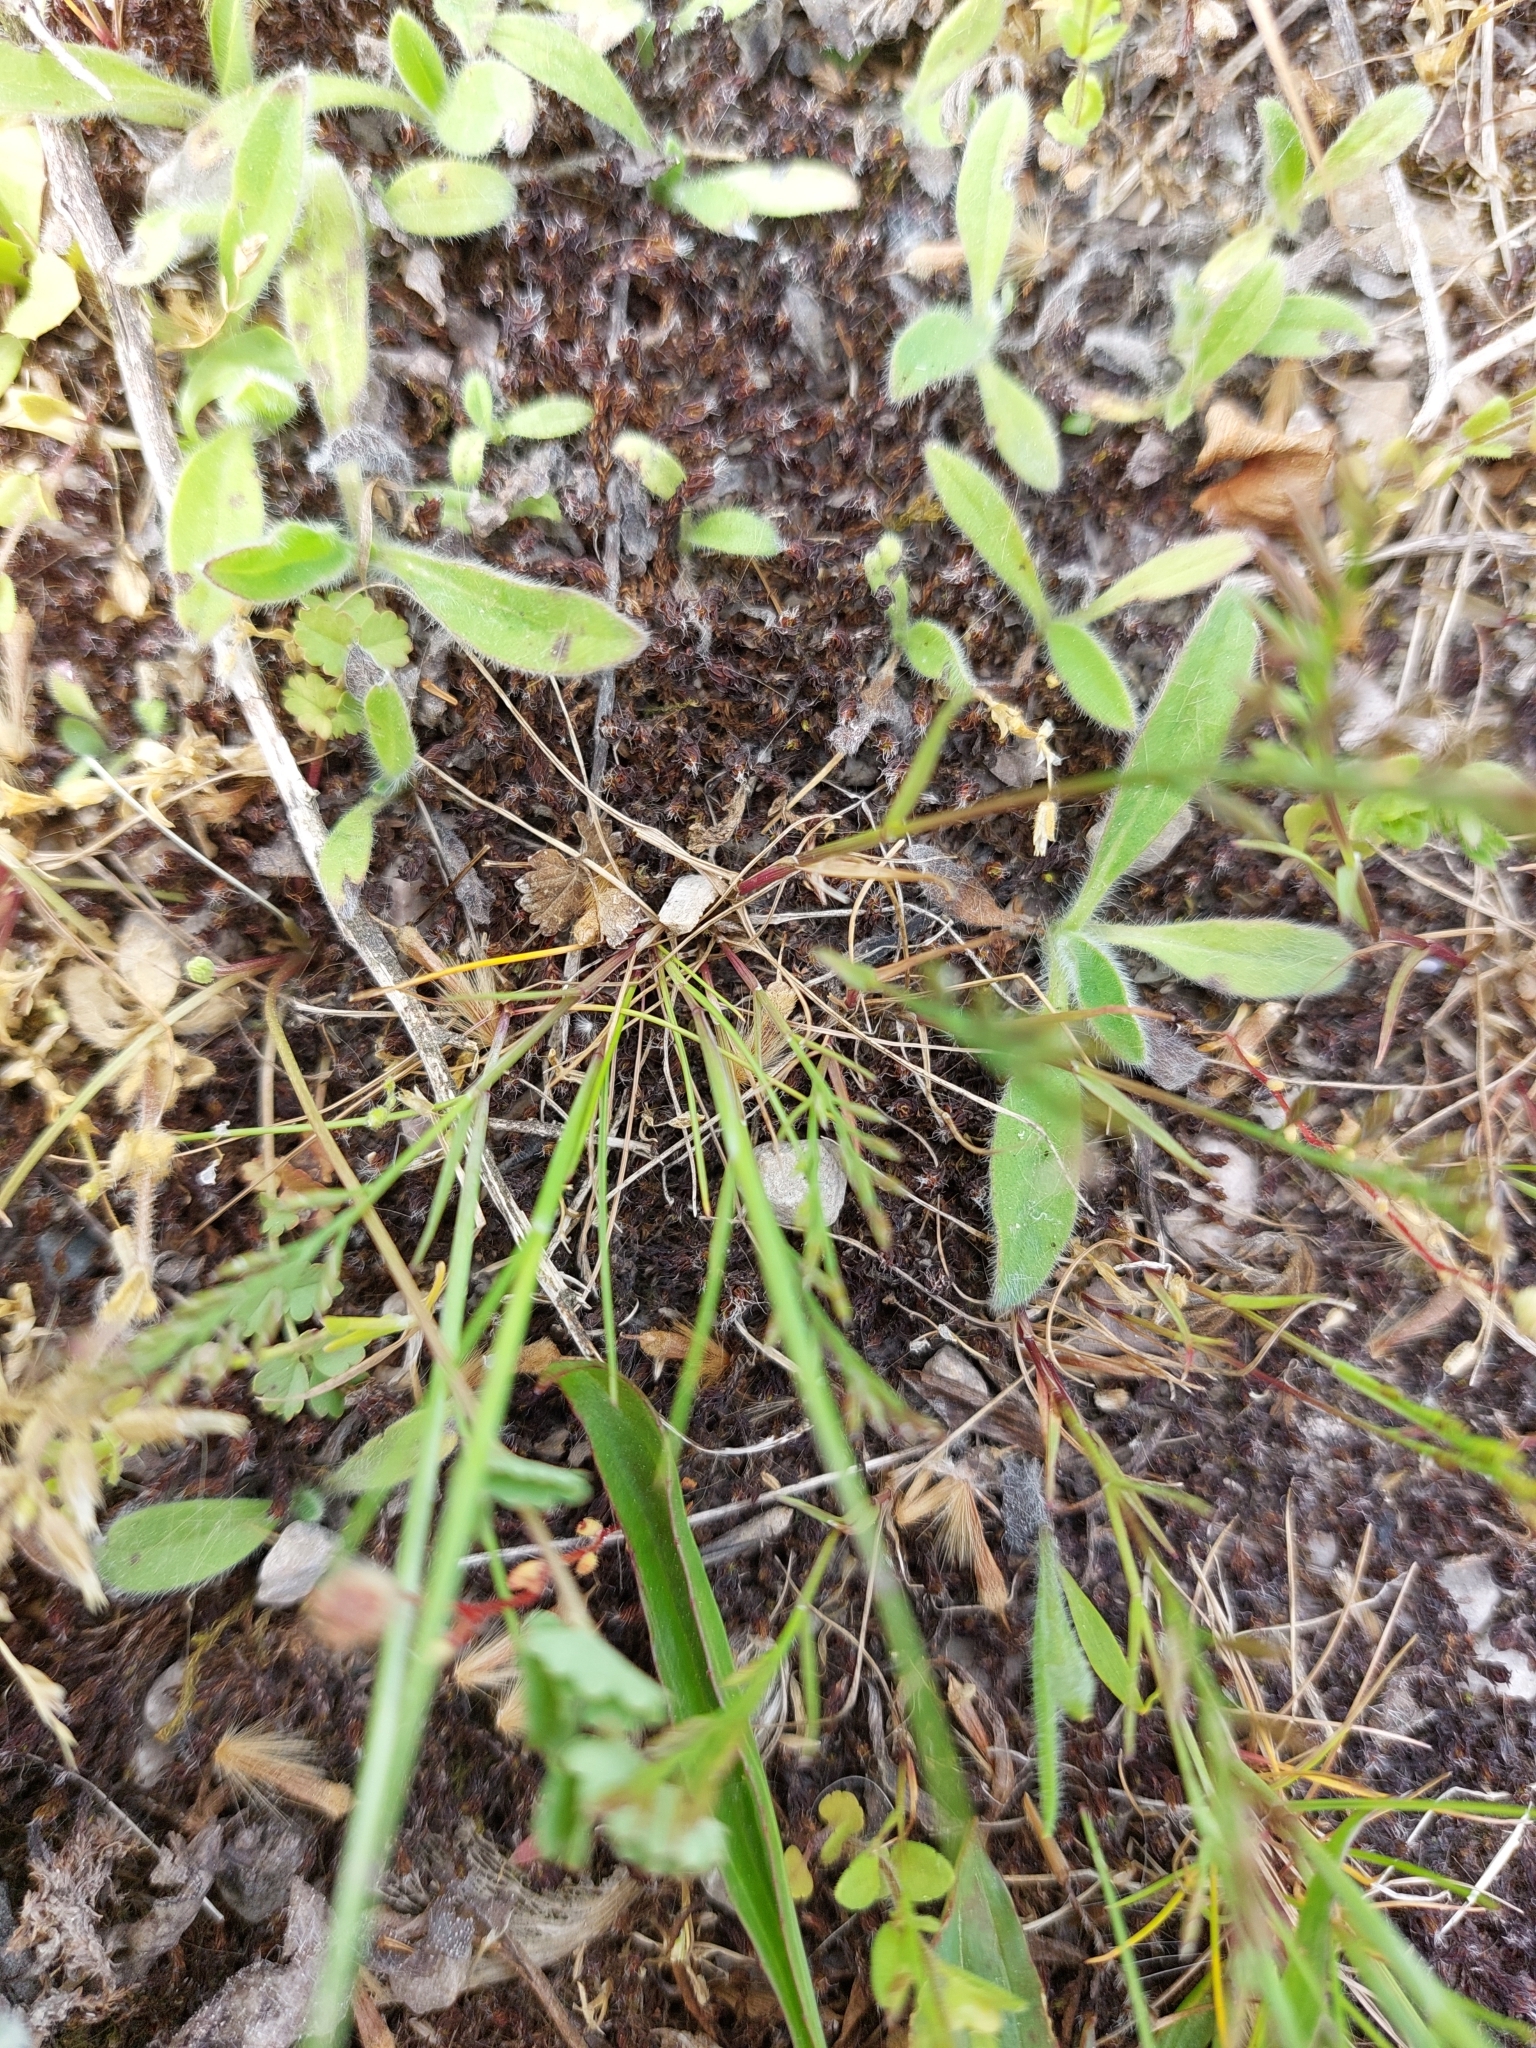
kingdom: Plantae
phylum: Tracheophyta
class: Liliopsida
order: Poales
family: Poaceae
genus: Catapodium
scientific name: Catapodium rigidum
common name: Fern-grass
